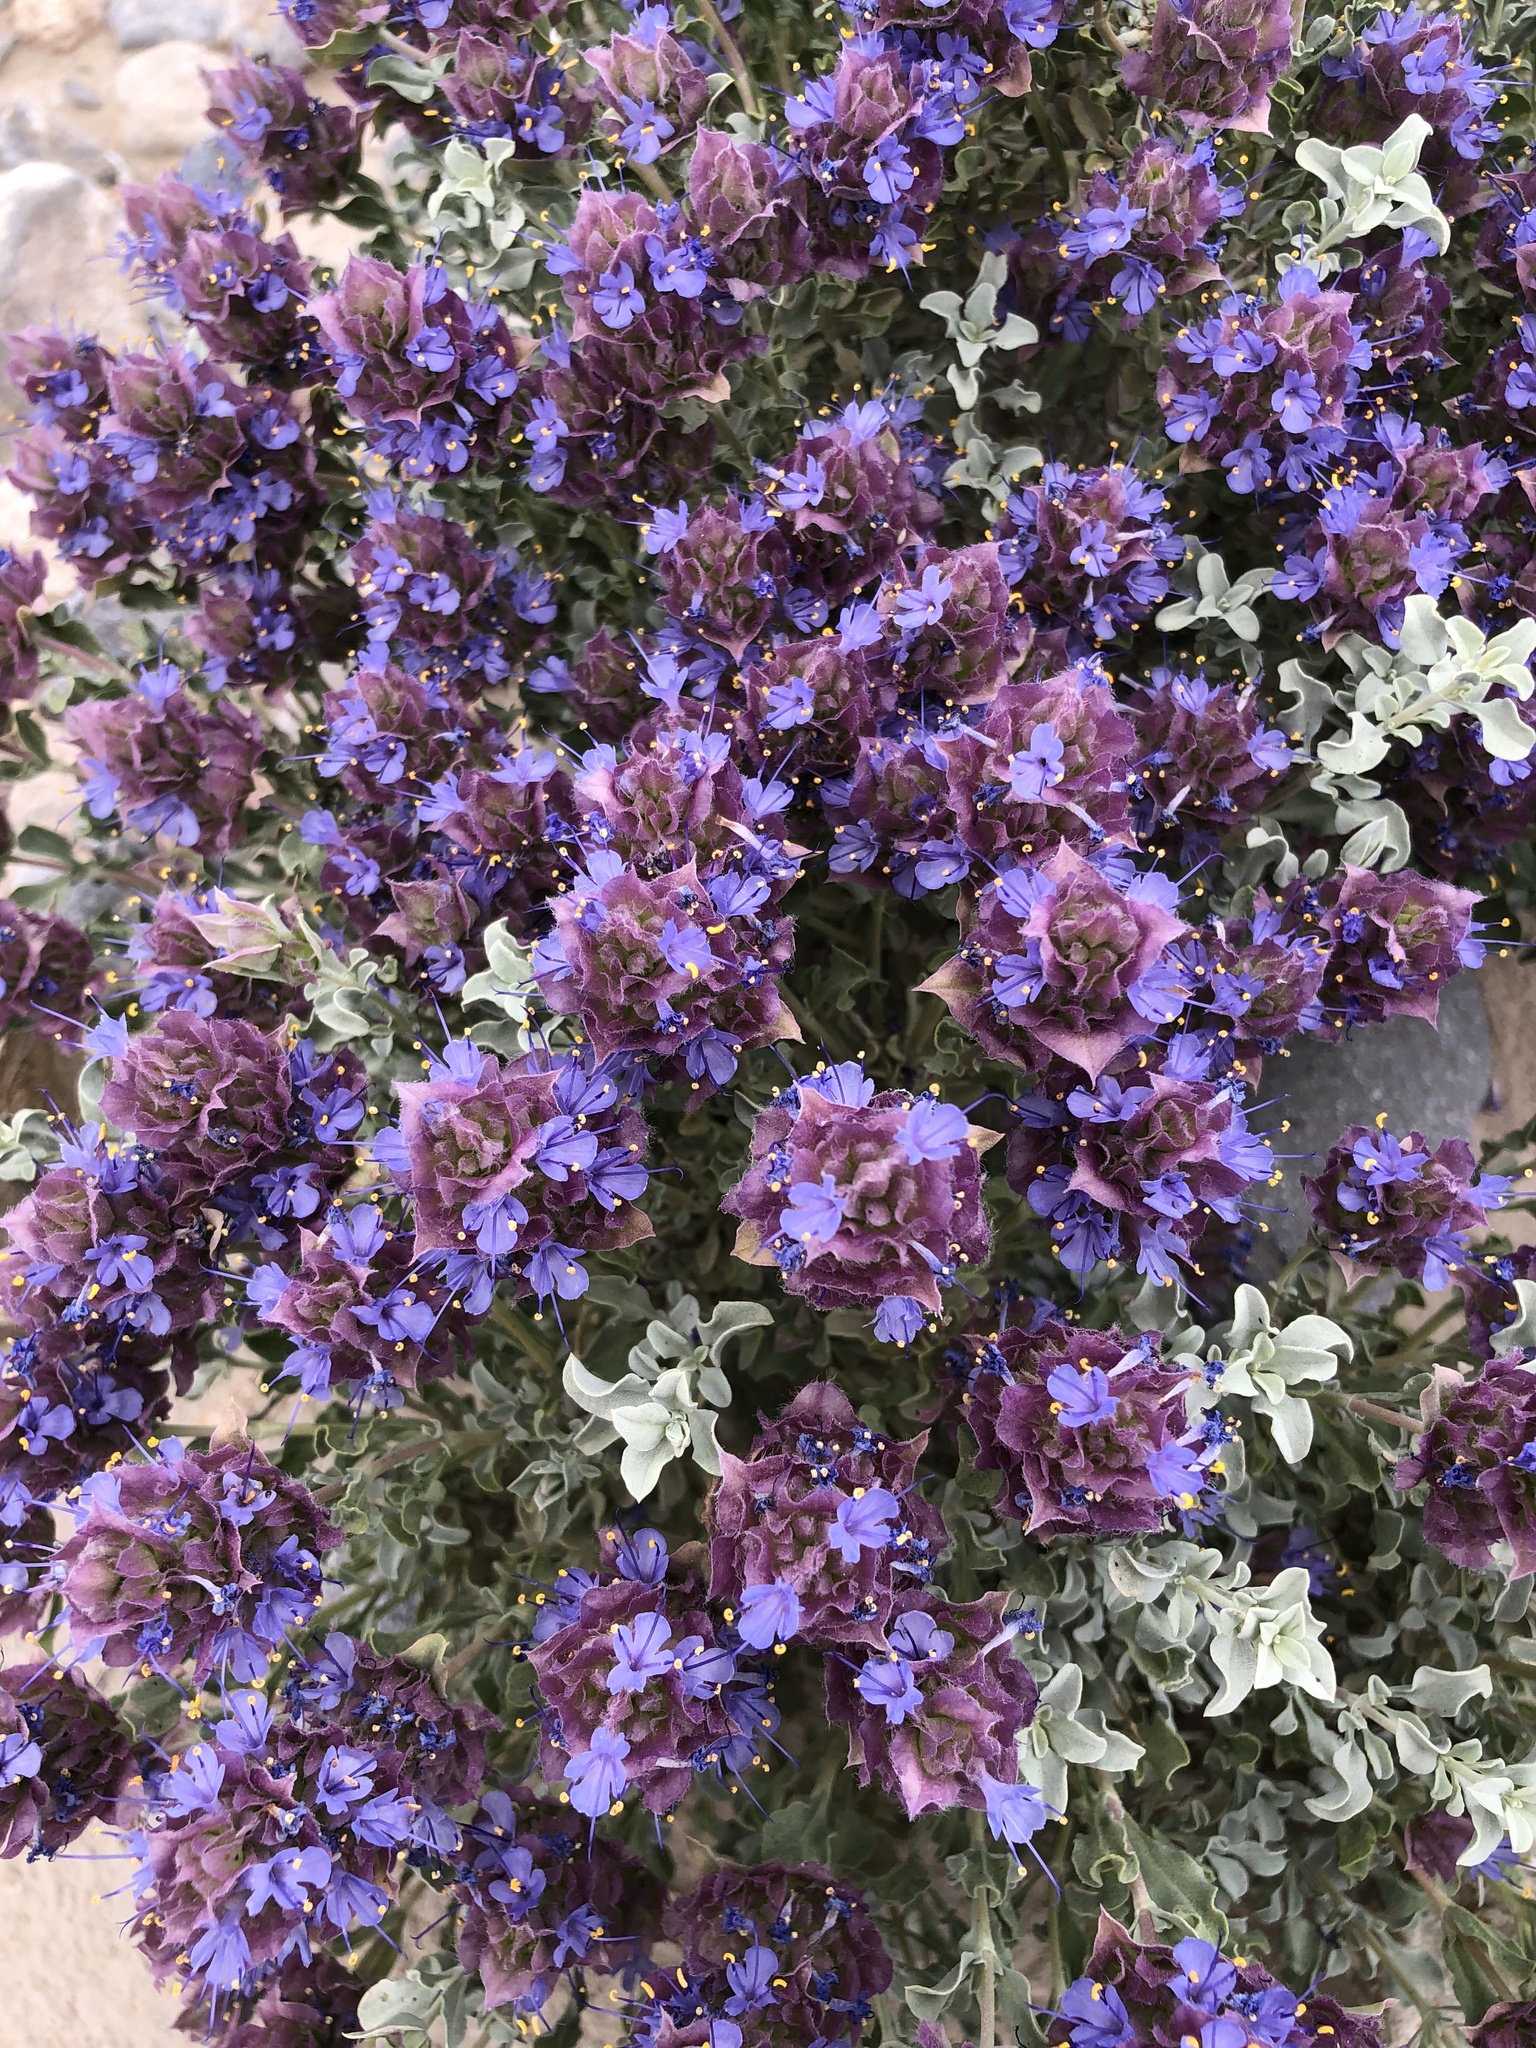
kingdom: Plantae
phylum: Tracheophyta
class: Magnoliopsida
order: Lamiales
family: Lamiaceae
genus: Salvia
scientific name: Salvia dorrii
